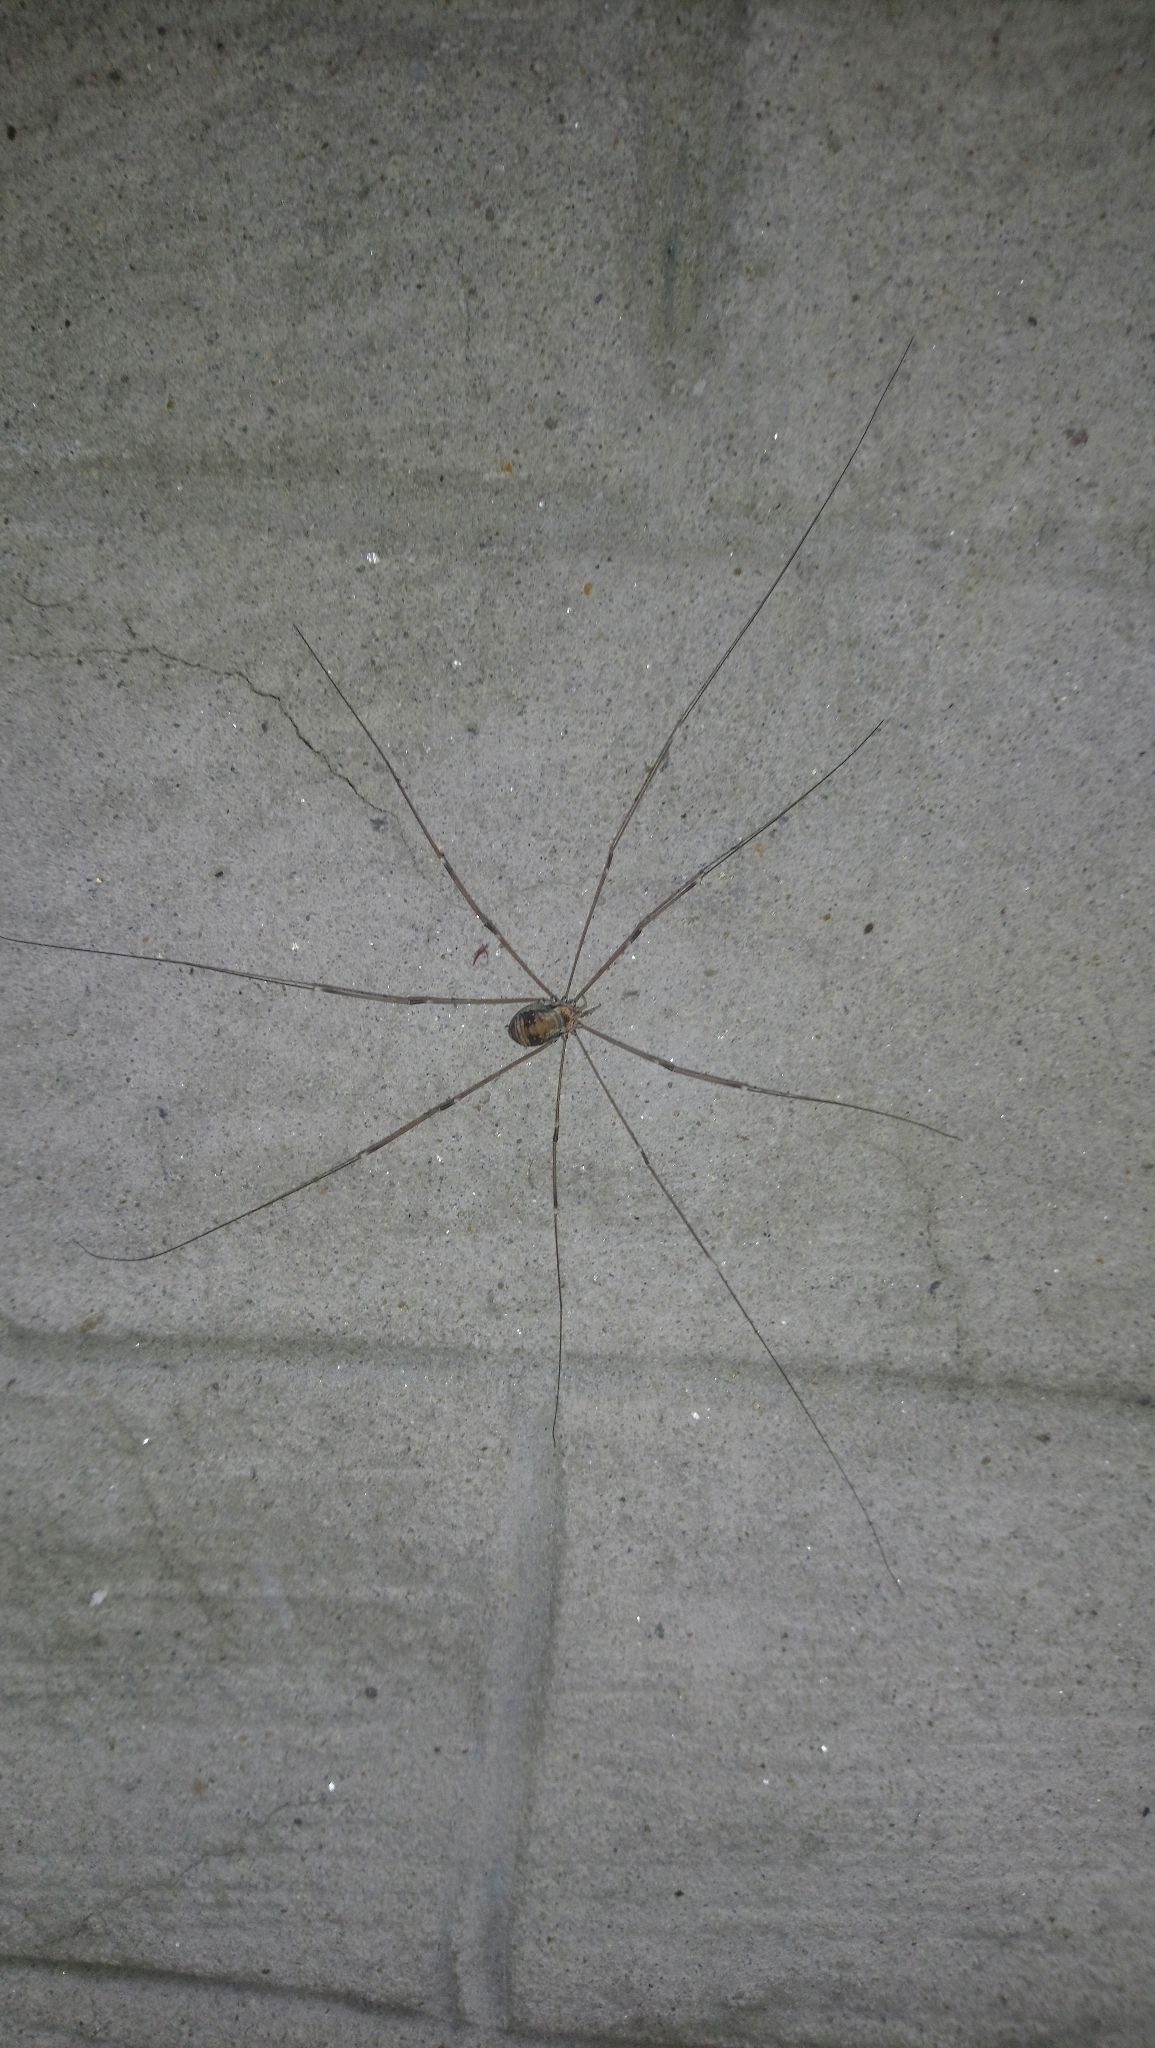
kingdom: Animalia
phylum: Arthropoda
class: Arachnida
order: Opiliones
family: Sclerosomatidae
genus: Leiobunum
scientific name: Leiobunum limbatum
